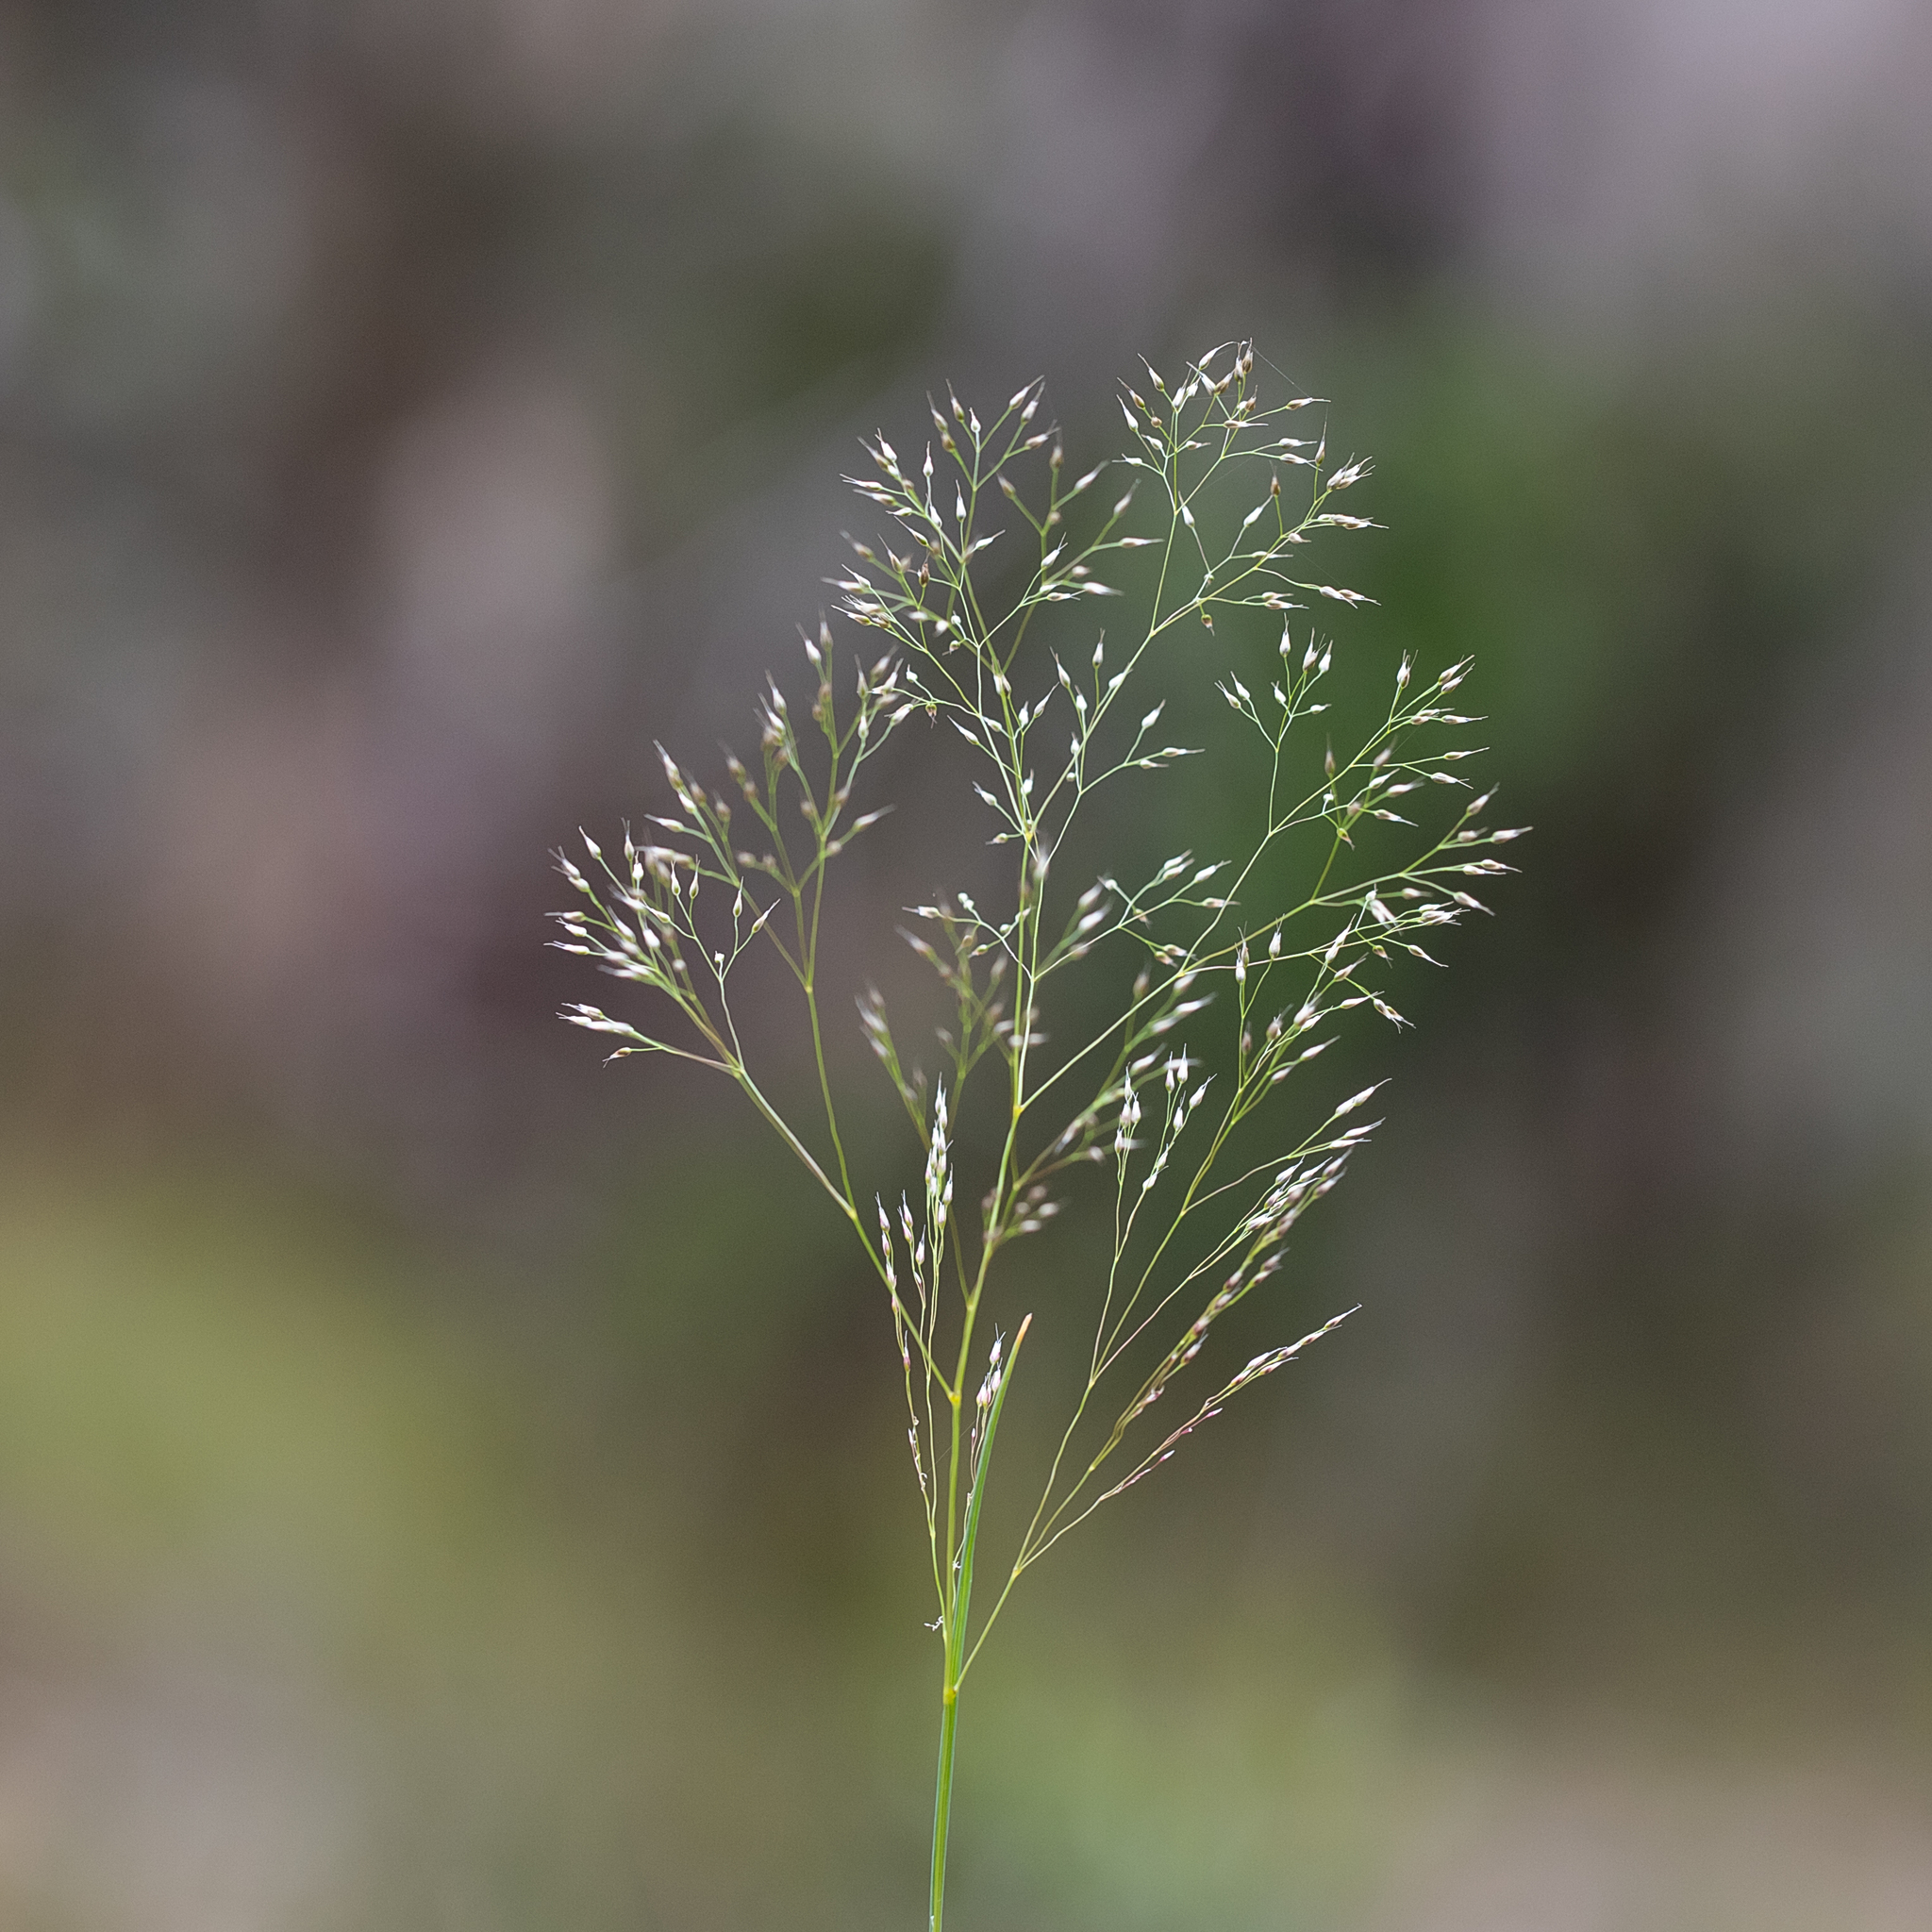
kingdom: Plantae
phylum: Tracheophyta
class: Liliopsida
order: Poales
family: Poaceae
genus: Aira
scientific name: Aira cupaniana
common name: Silver hairgrass
